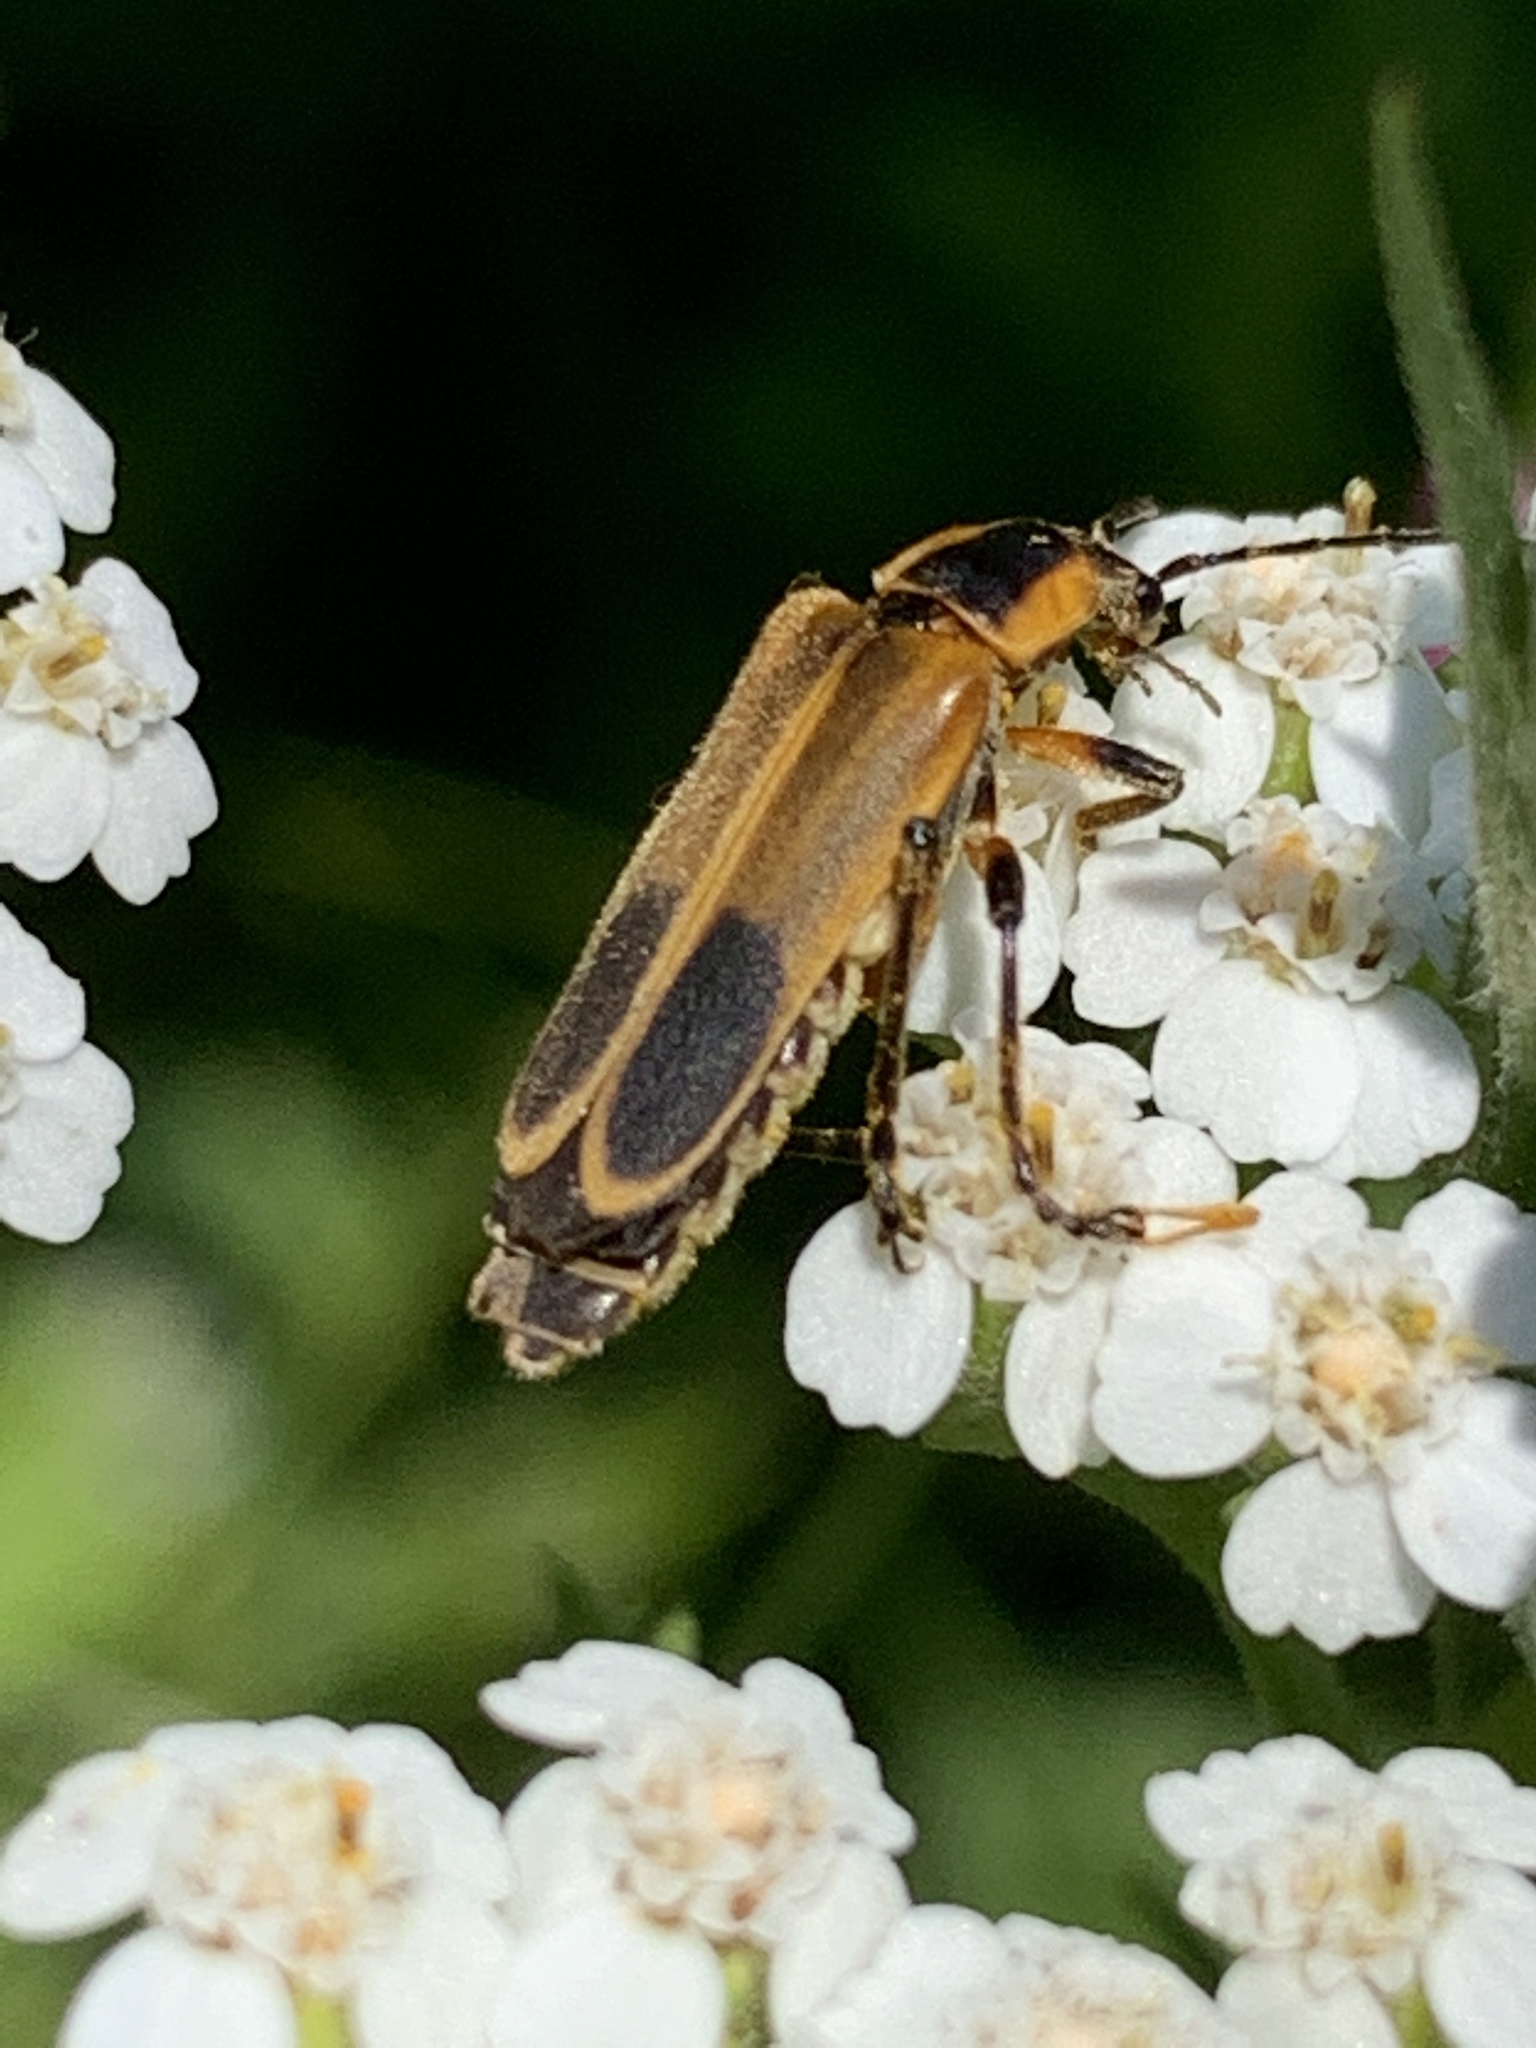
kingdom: Animalia
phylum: Arthropoda
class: Insecta
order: Coleoptera
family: Cantharidae
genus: Chauliognathus
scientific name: Chauliognathus marginatus
